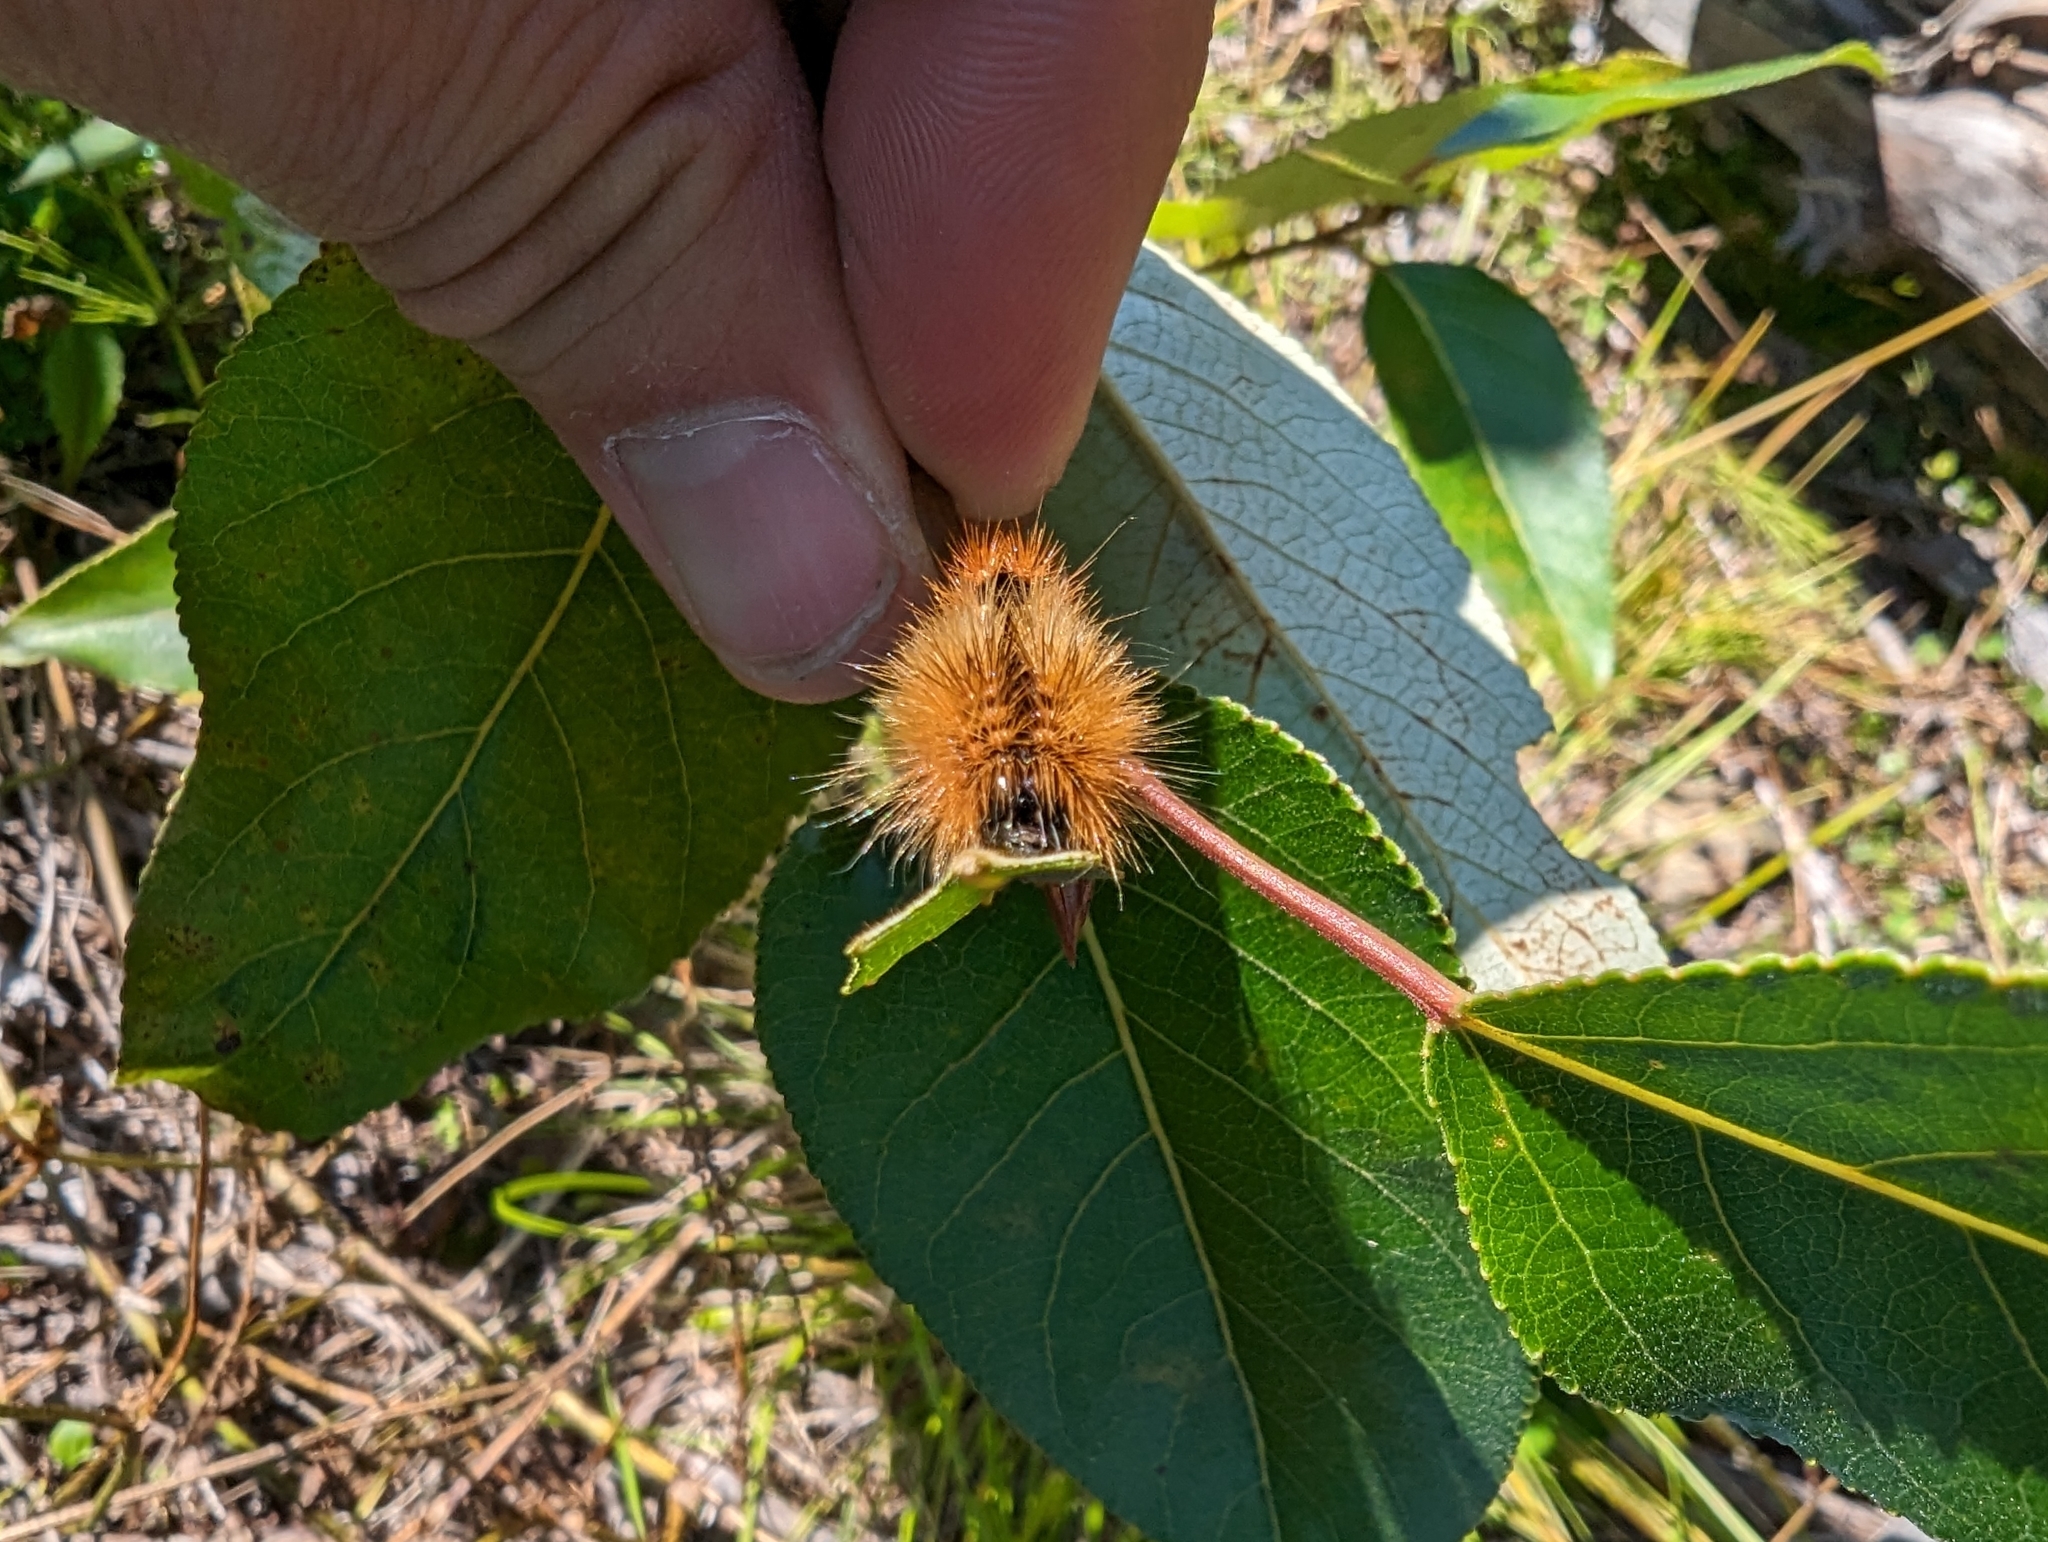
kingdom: Animalia
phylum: Arthropoda
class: Insecta
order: Lepidoptera
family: Noctuidae
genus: Acronicta
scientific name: Acronicta impressa
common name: Impressed dagger
